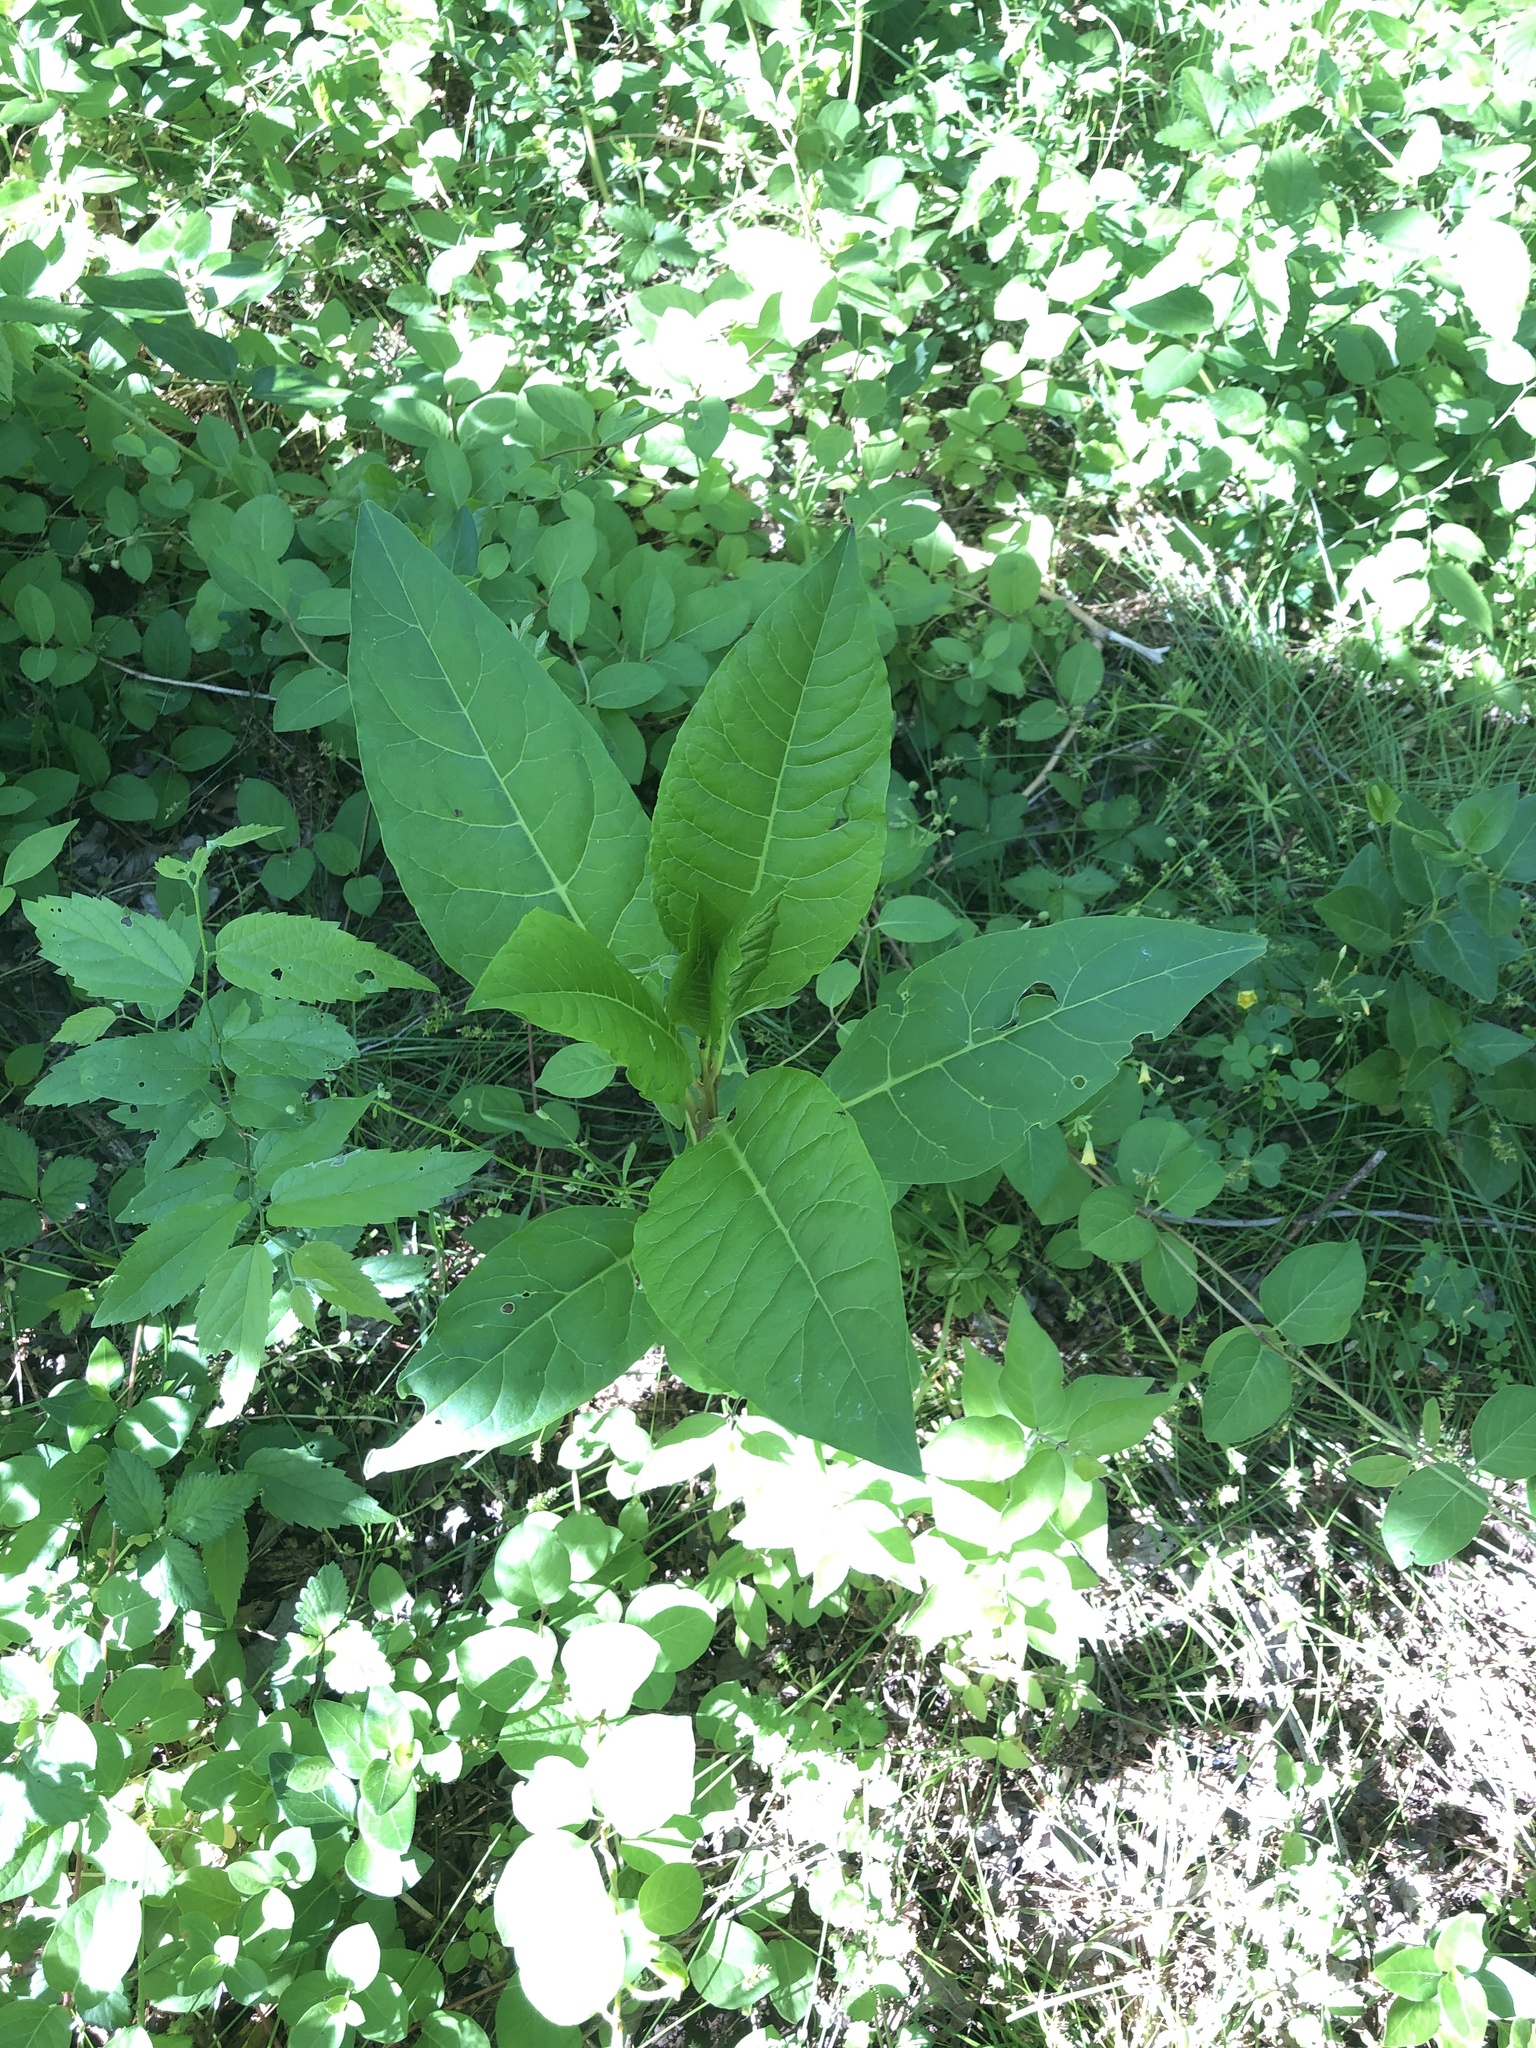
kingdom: Plantae
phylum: Tracheophyta
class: Magnoliopsida
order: Caryophyllales
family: Phytolaccaceae
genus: Phytolacca
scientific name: Phytolacca americana
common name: American pokeweed
